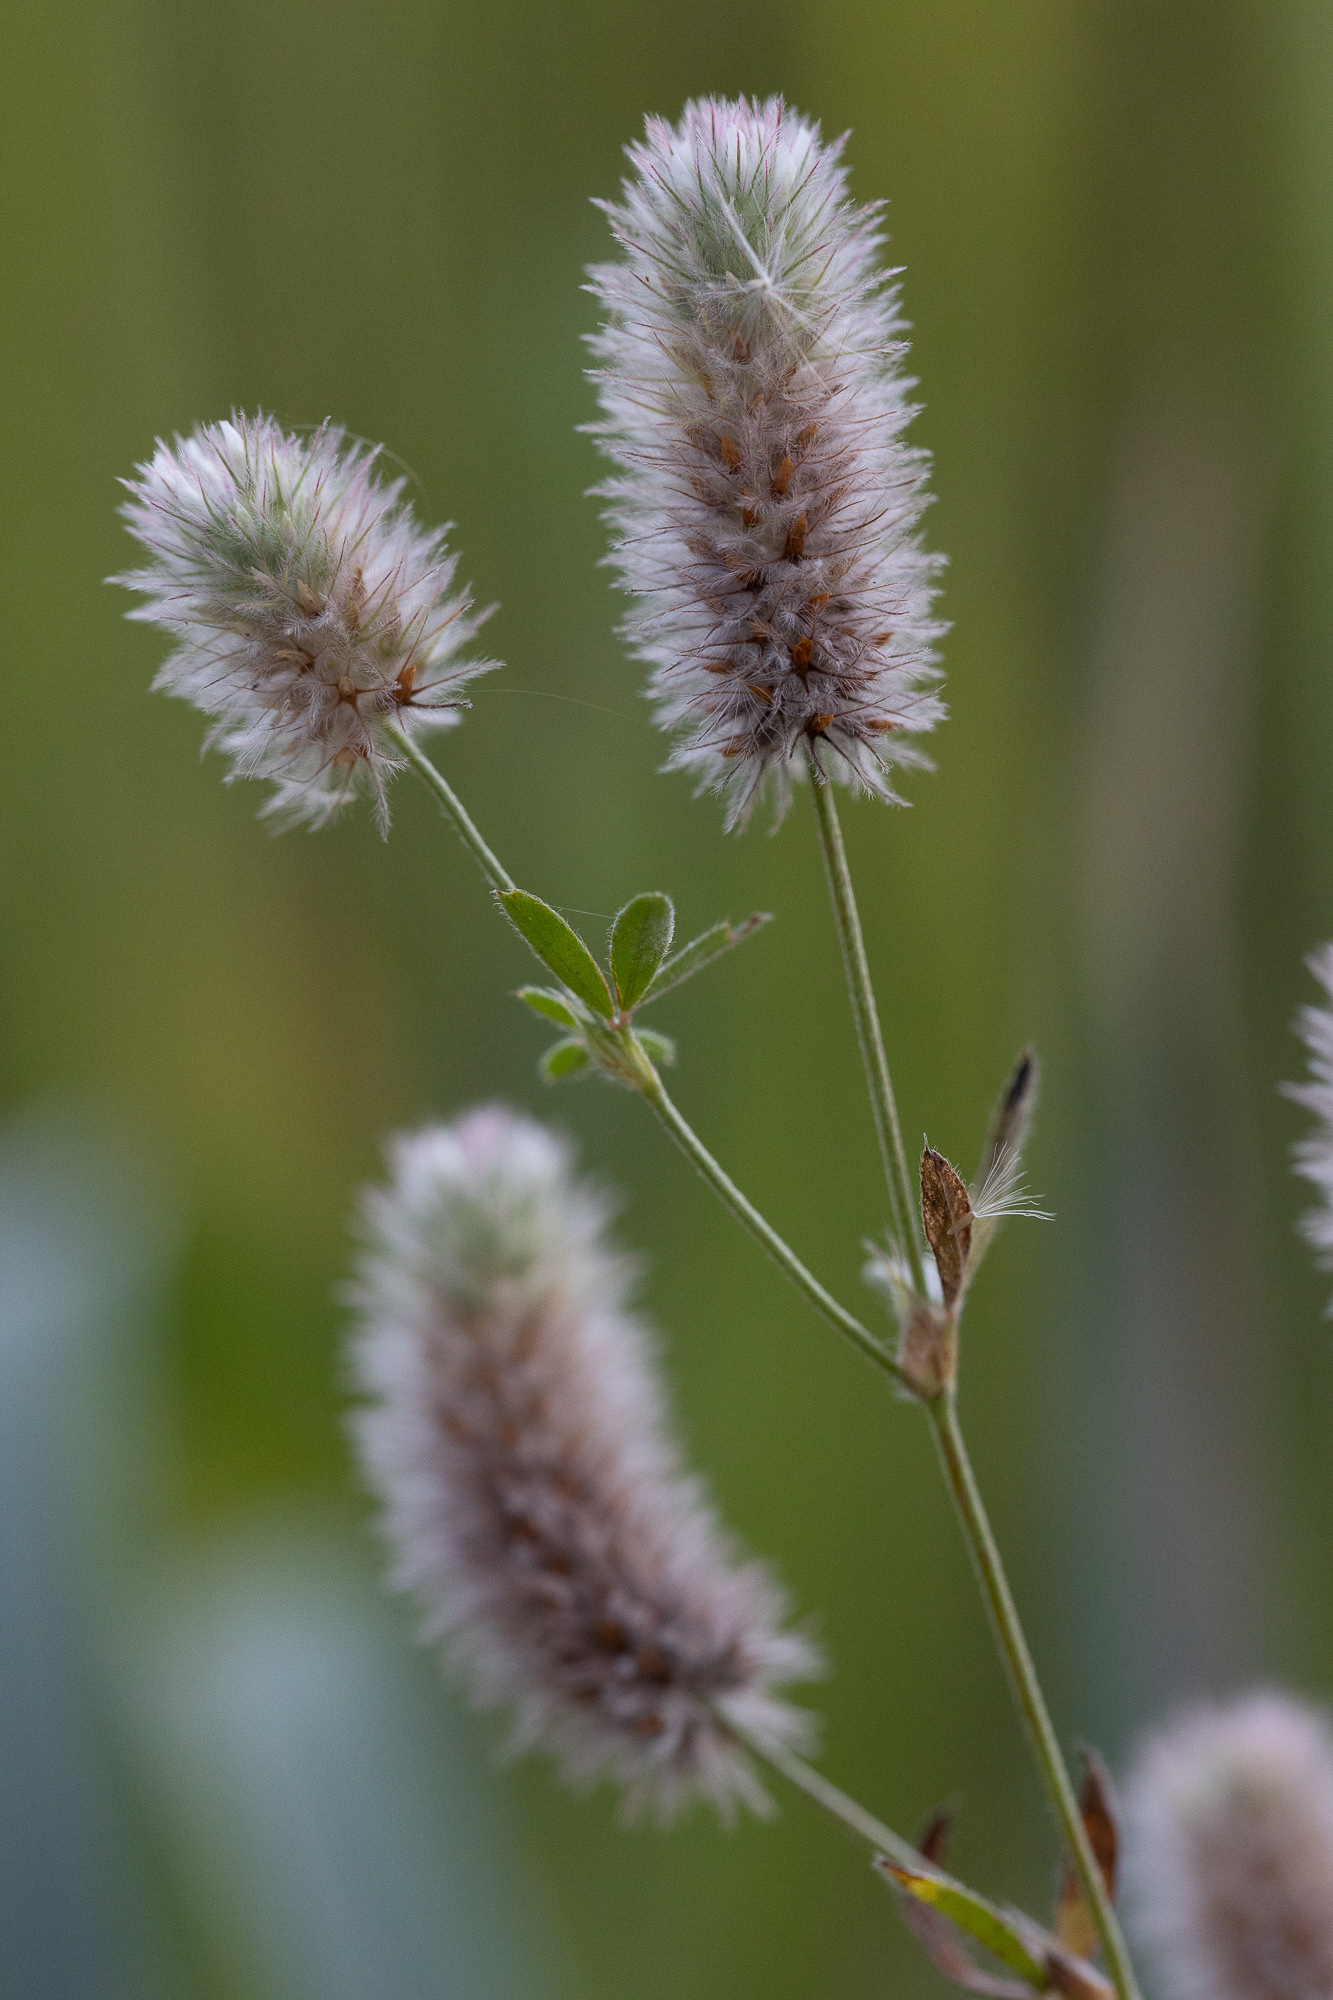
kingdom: Plantae
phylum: Tracheophyta
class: Magnoliopsida
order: Fabales
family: Fabaceae
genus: Trifolium
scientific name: Trifolium arvense
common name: Hare's-foot clover
